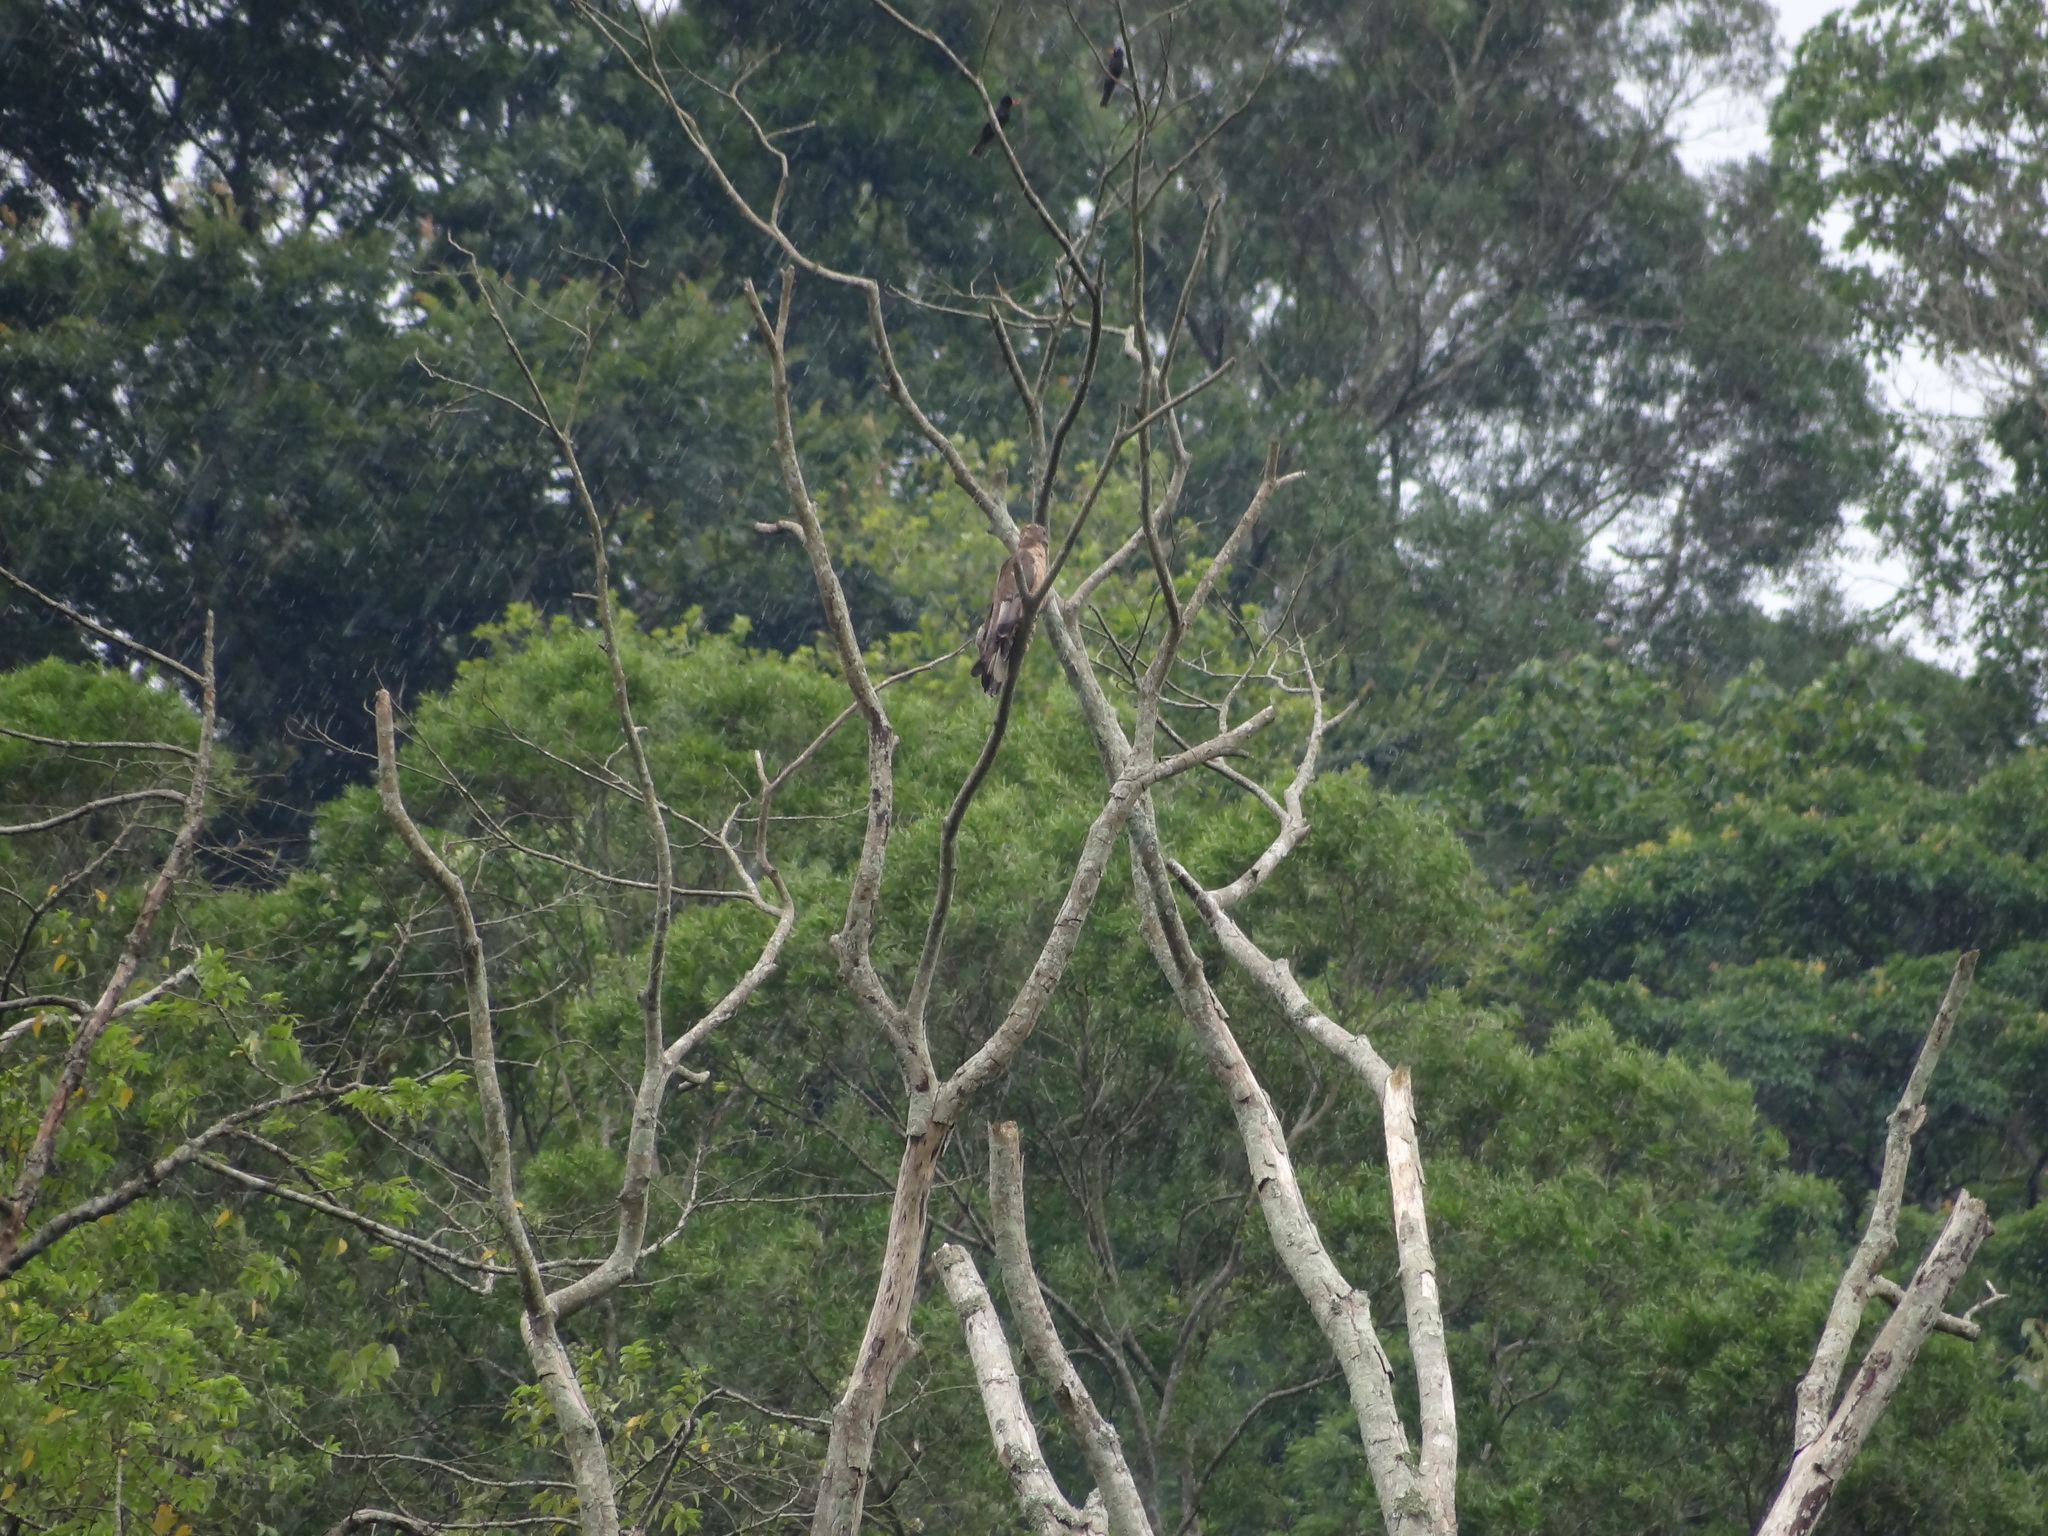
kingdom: Animalia
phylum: Chordata
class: Aves
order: Accipitriformes
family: Accipitridae
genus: Pernis
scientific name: Pernis ptilorhynchus
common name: Crested honey buzzard
